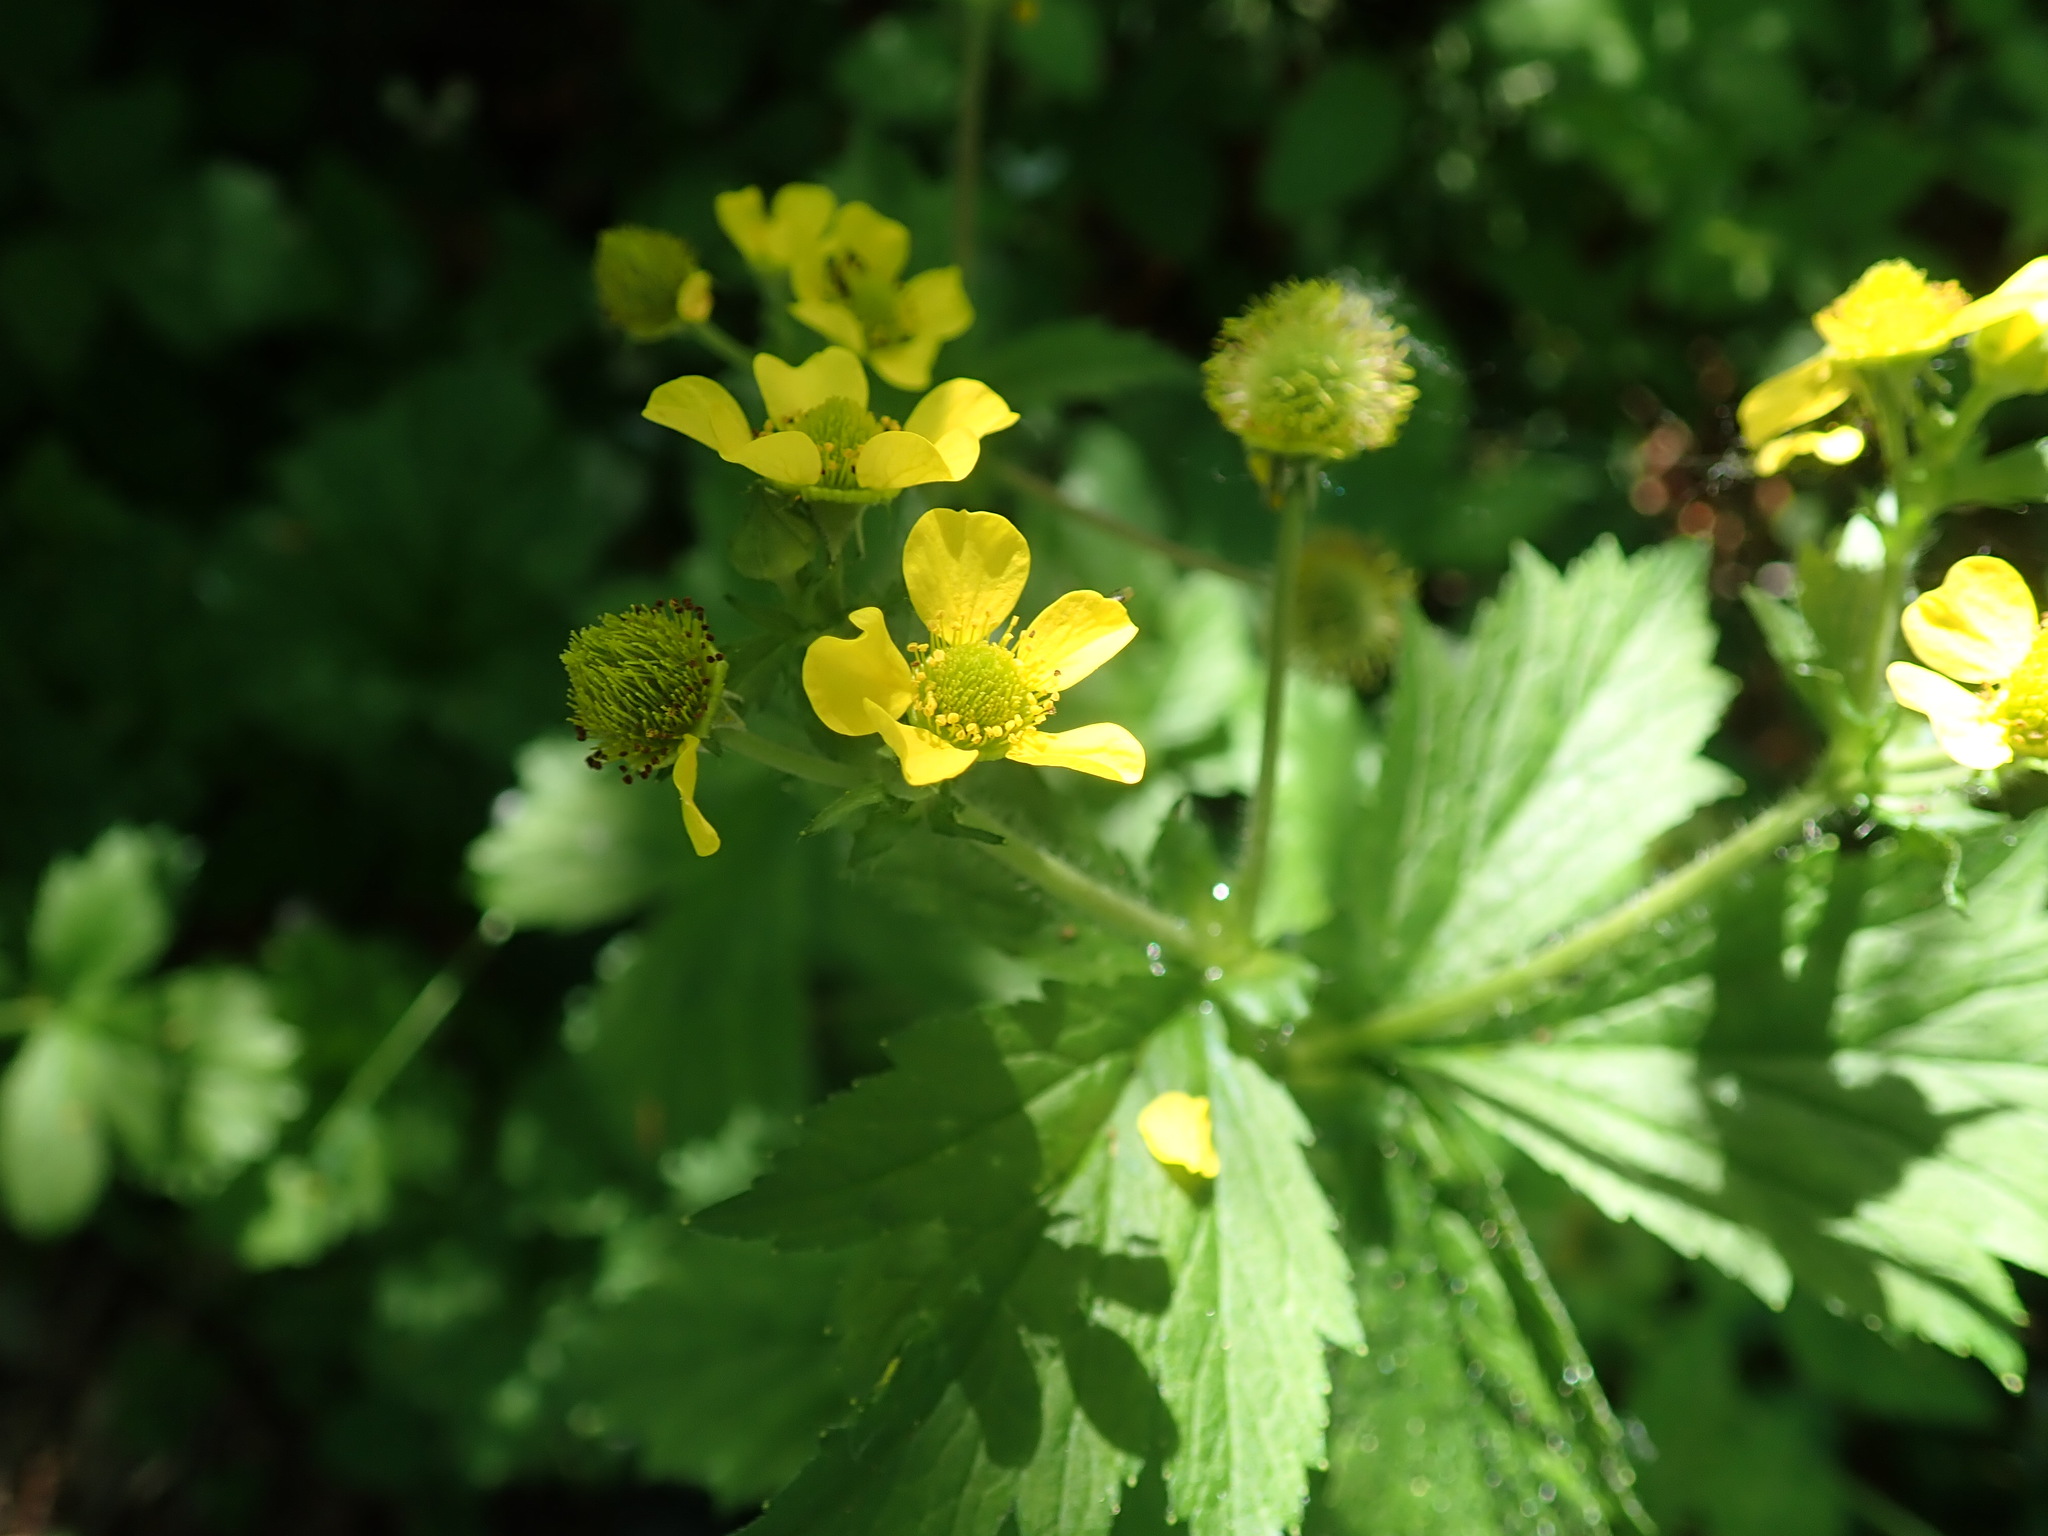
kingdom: Plantae
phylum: Tracheophyta
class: Magnoliopsida
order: Rosales
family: Rosaceae
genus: Geum
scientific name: Geum macrophyllum
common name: Large-leaved avens
